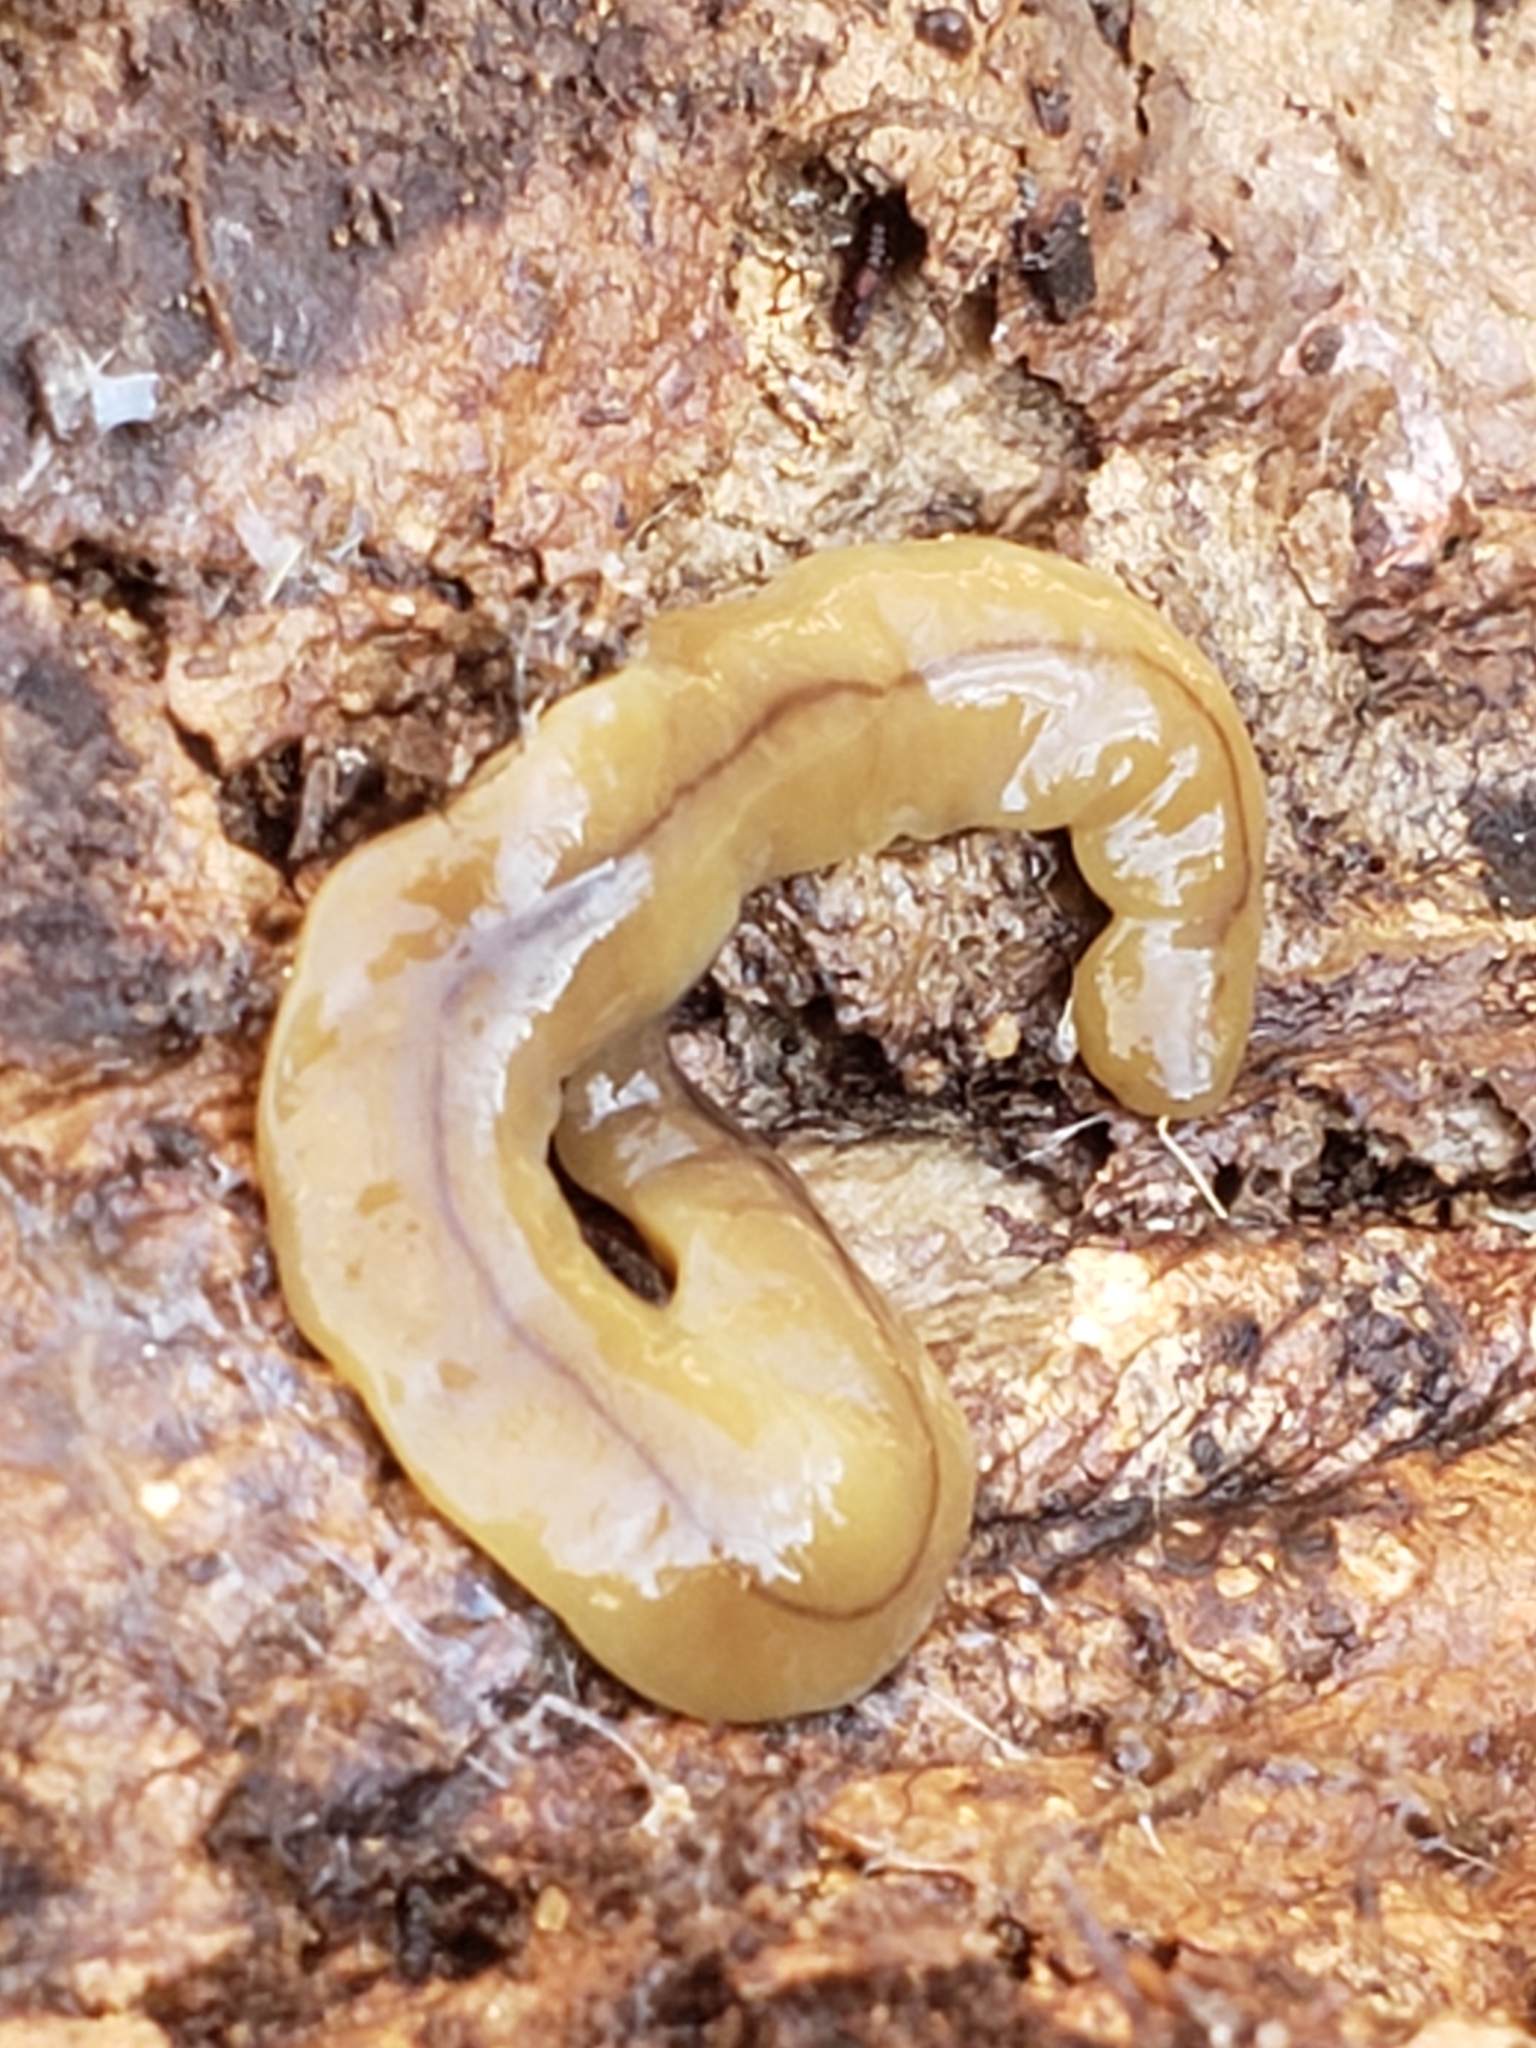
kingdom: Animalia
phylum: Platyhelminthes
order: Tricladida
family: Geoplanidae
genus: Bipalium
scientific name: Bipalium adventitium
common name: Land planarian
